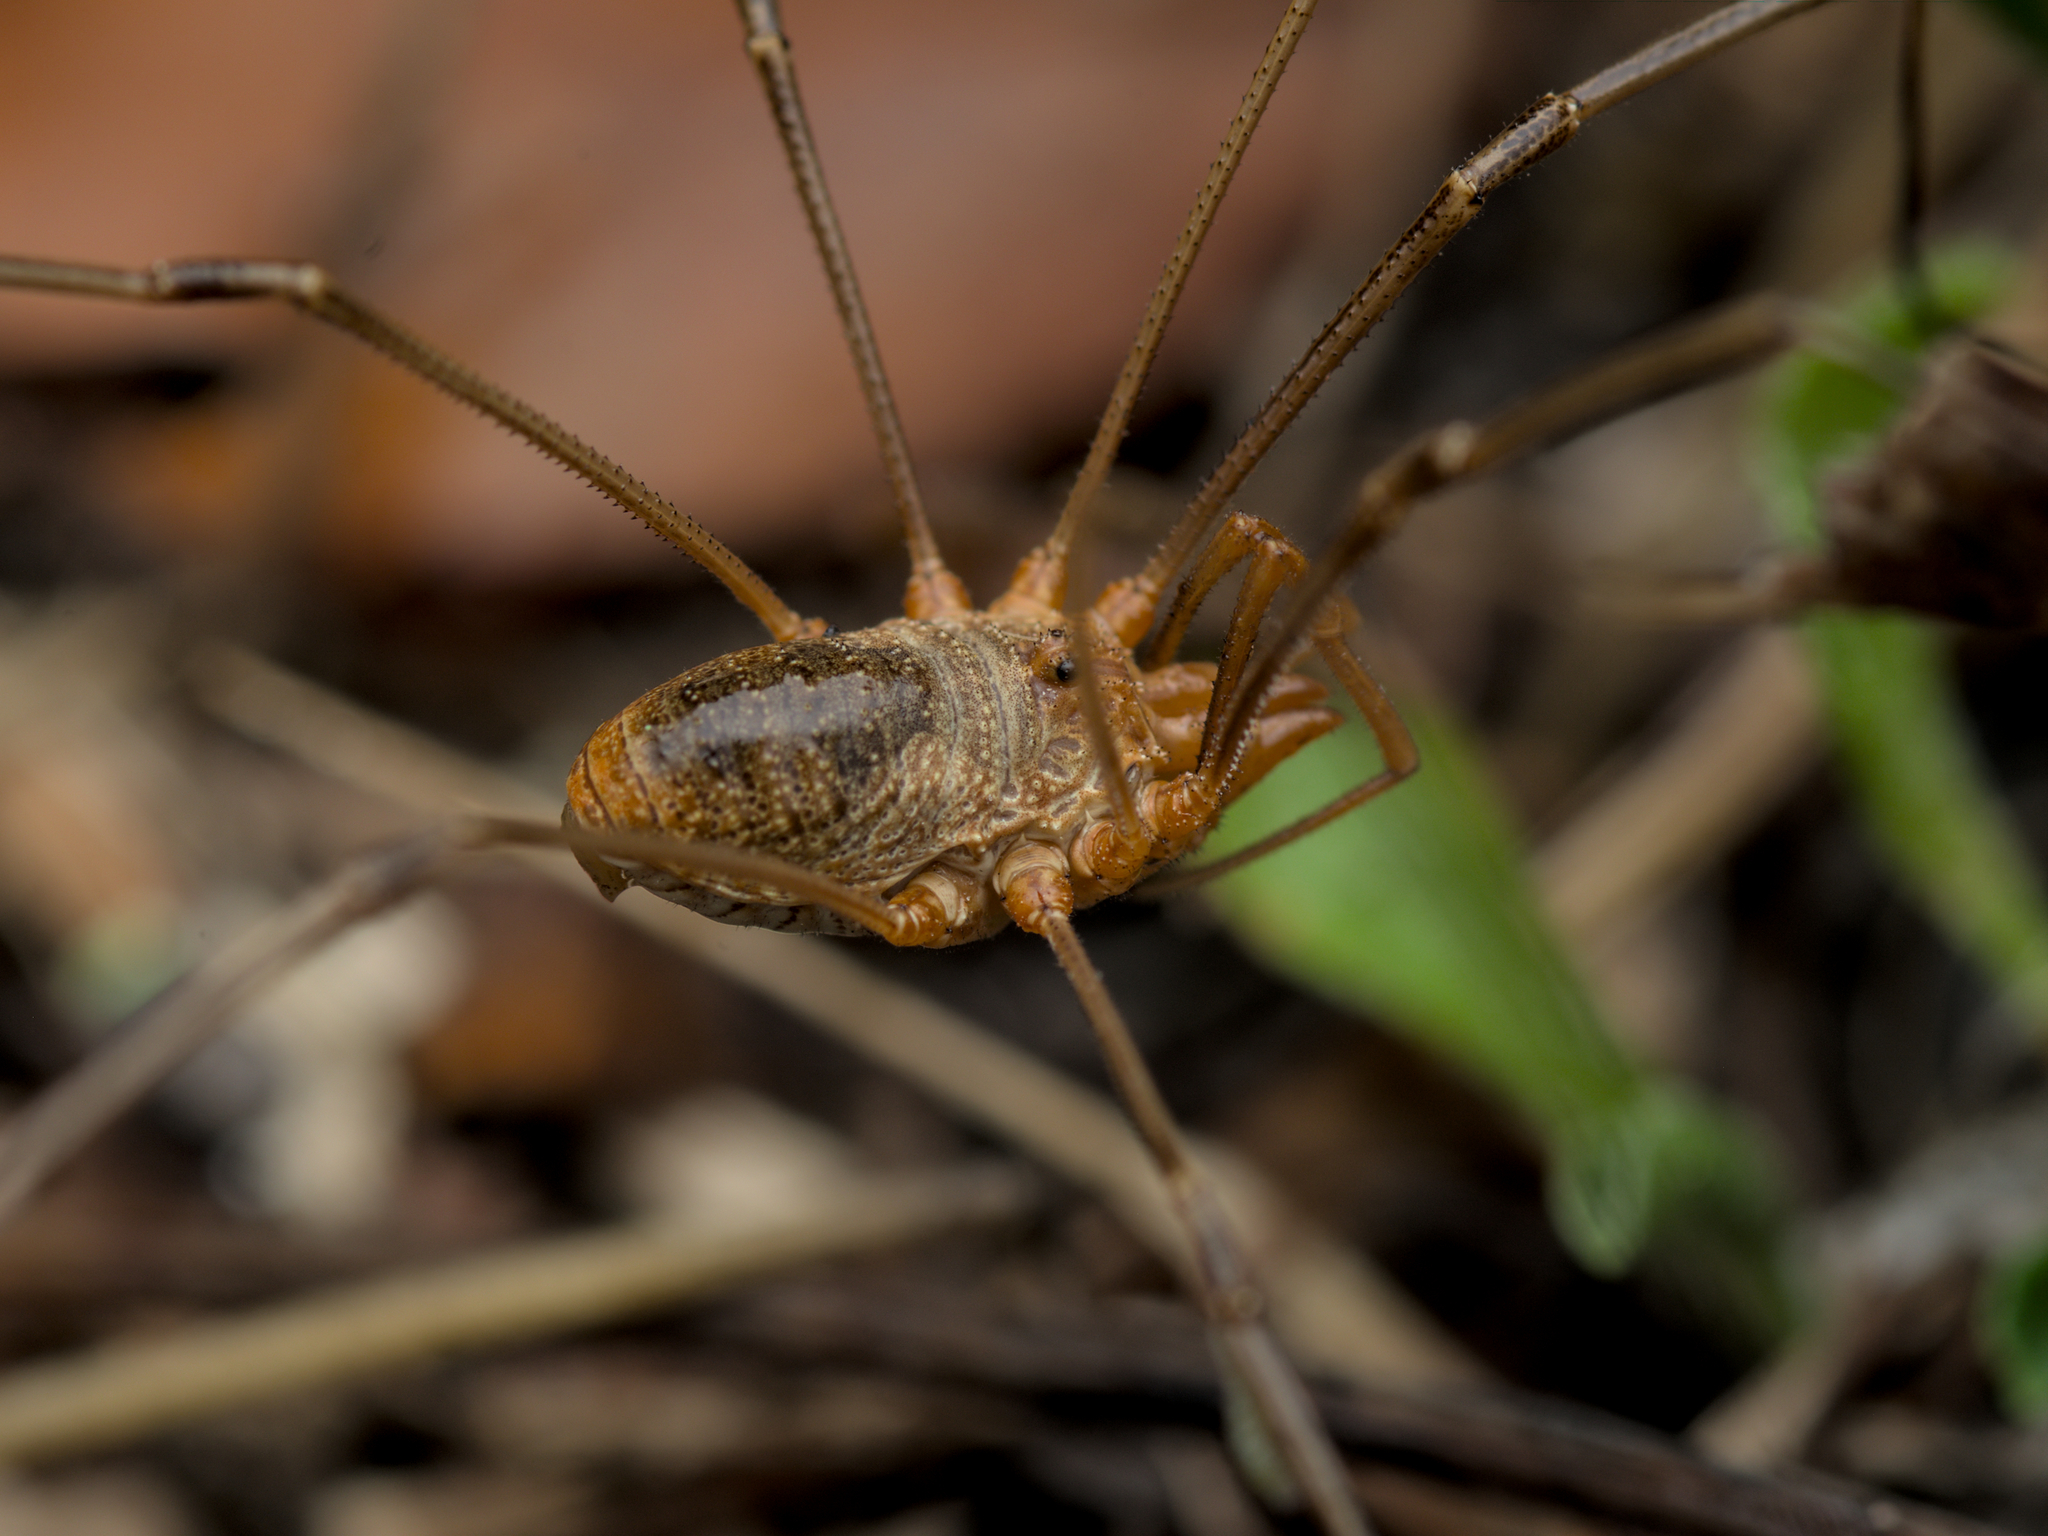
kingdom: Animalia
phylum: Arthropoda
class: Arachnida
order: Opiliones
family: Phalangiidae
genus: Phalangium
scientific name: Phalangium opilio
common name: Daddy longleg
